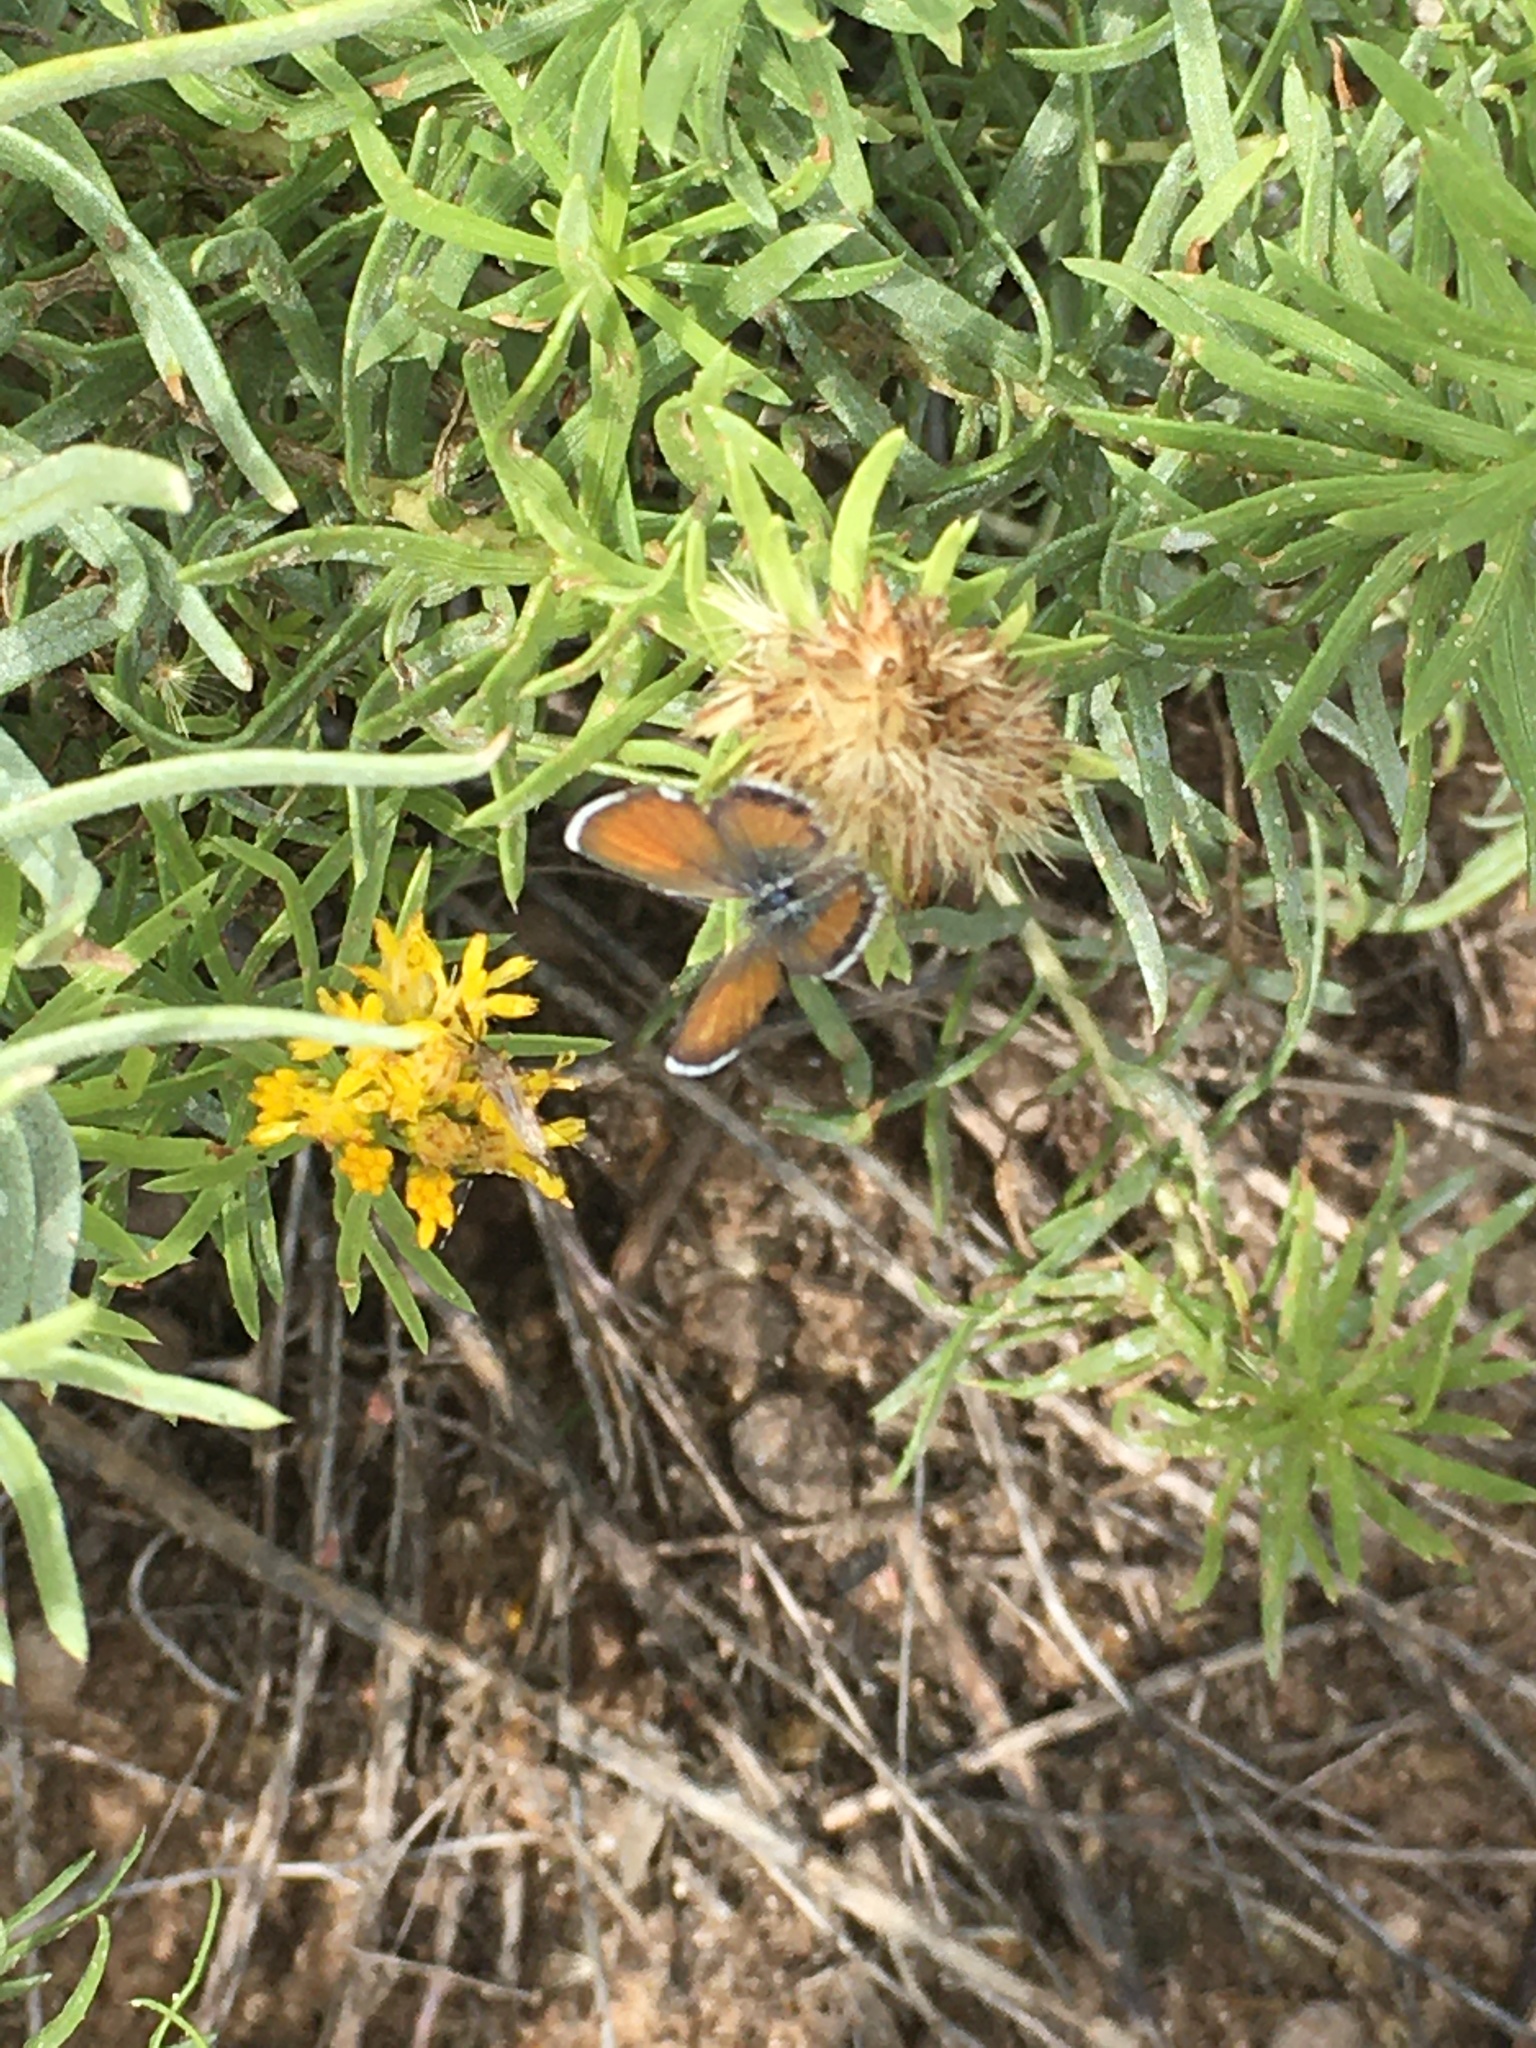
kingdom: Animalia
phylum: Arthropoda
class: Insecta
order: Lepidoptera
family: Lycaenidae
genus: Brephidium
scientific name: Brephidium exilis
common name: Pygmy blue
